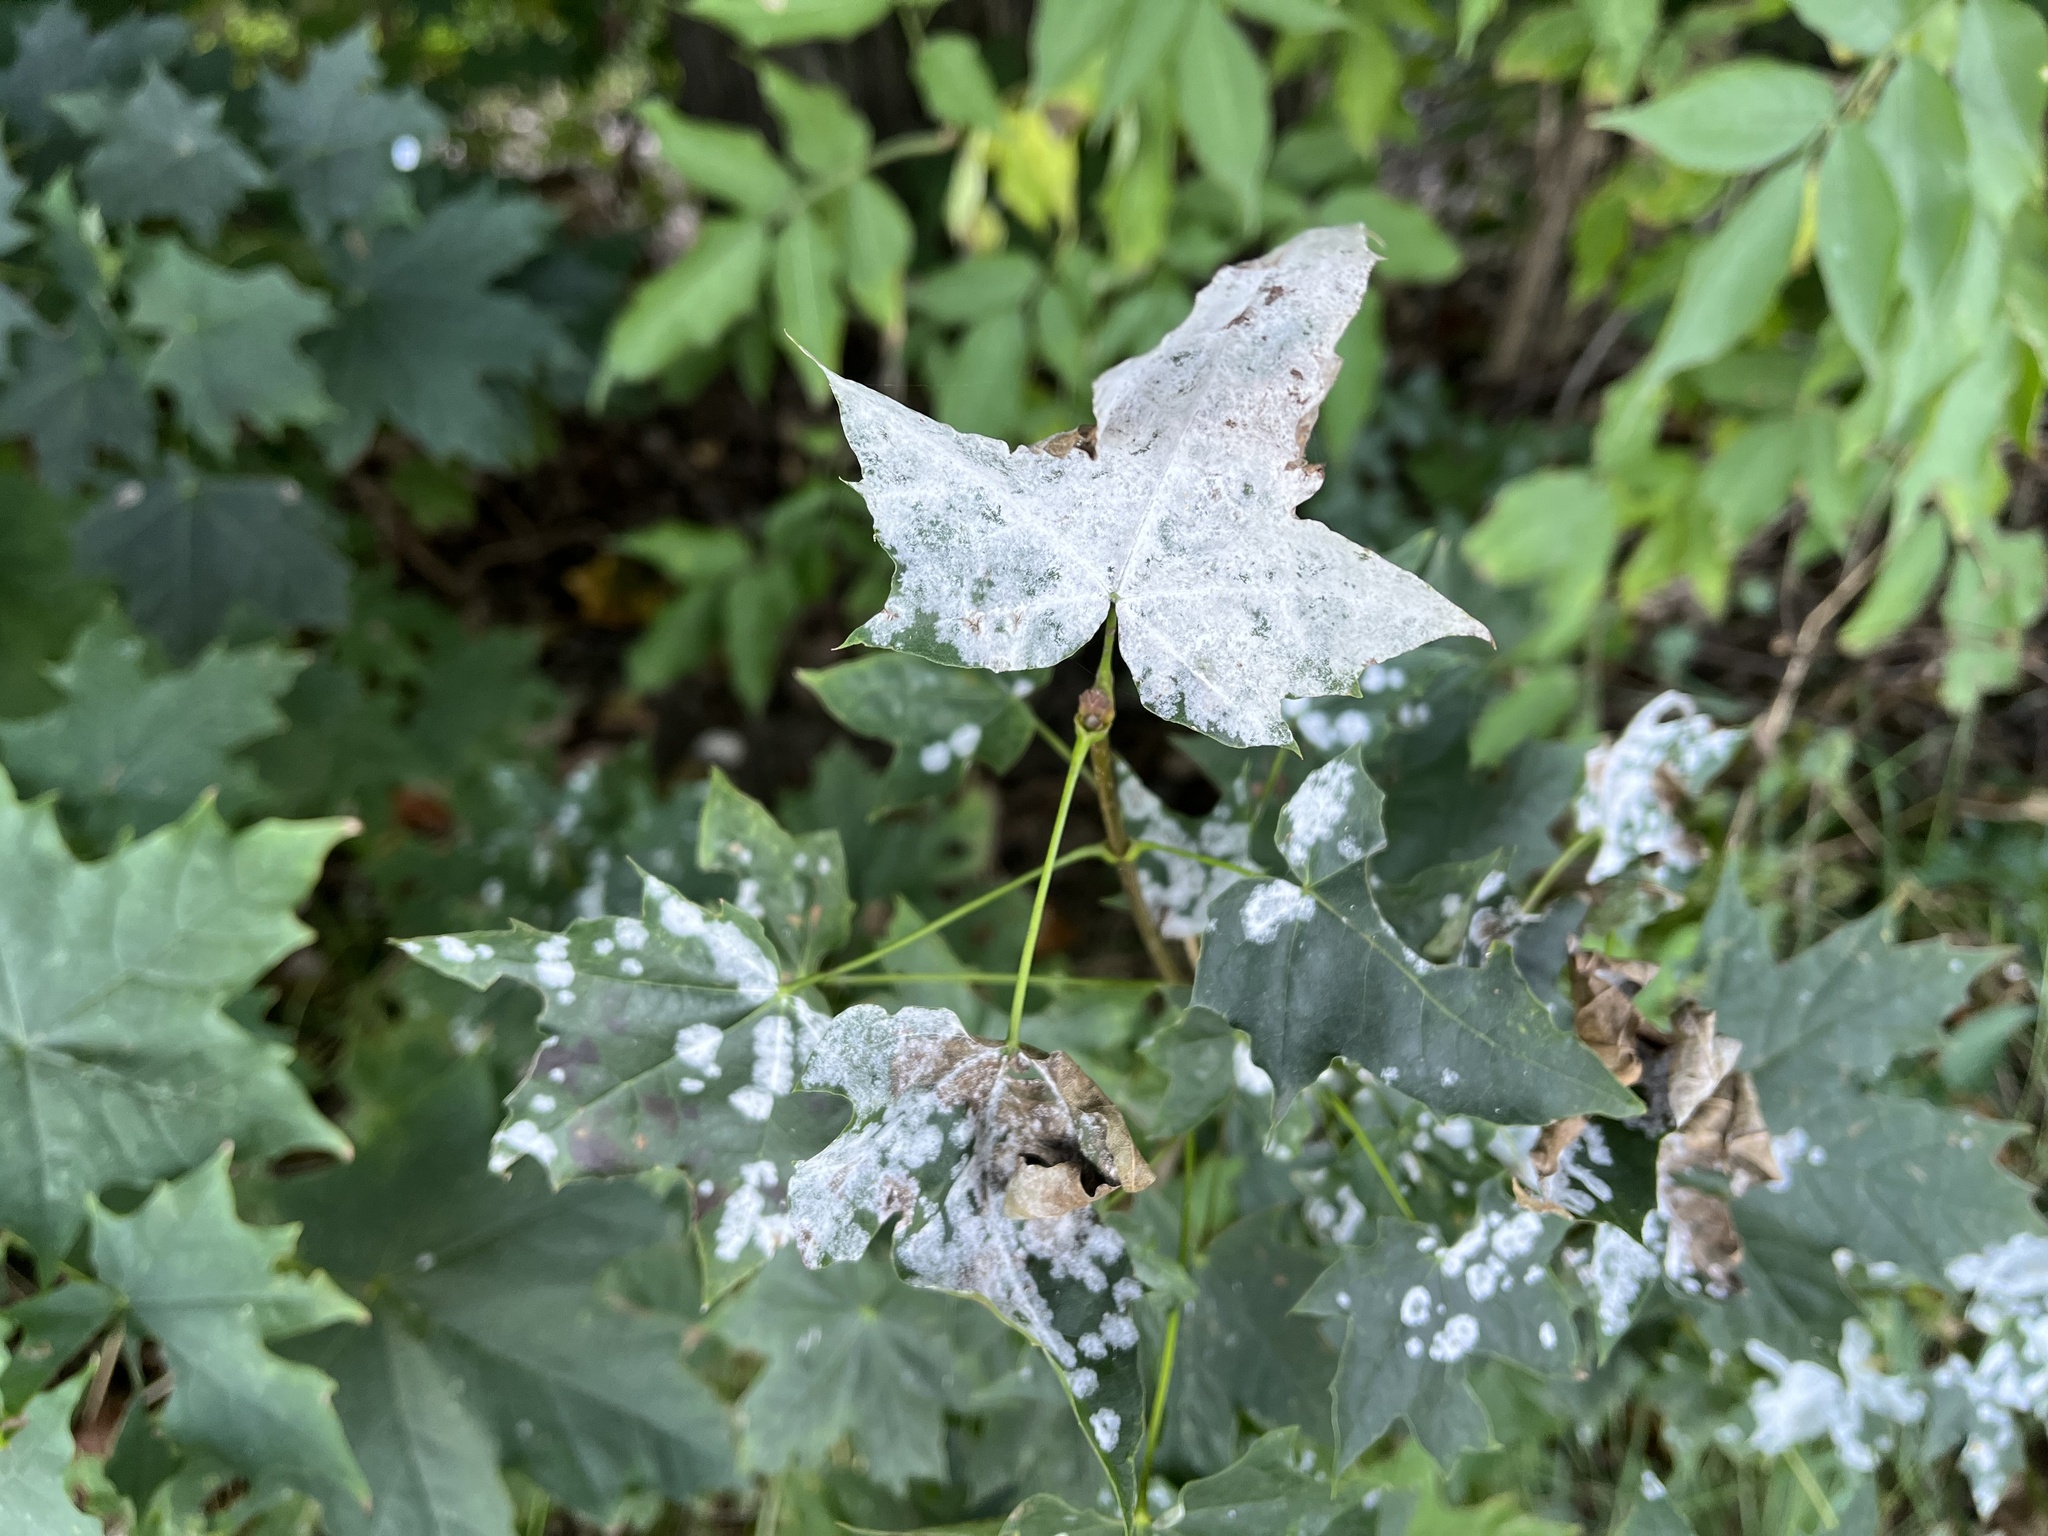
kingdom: Fungi
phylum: Ascomycota
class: Leotiomycetes
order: Helotiales
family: Erysiphaceae
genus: Sawadaea
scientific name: Sawadaea tulasnei
